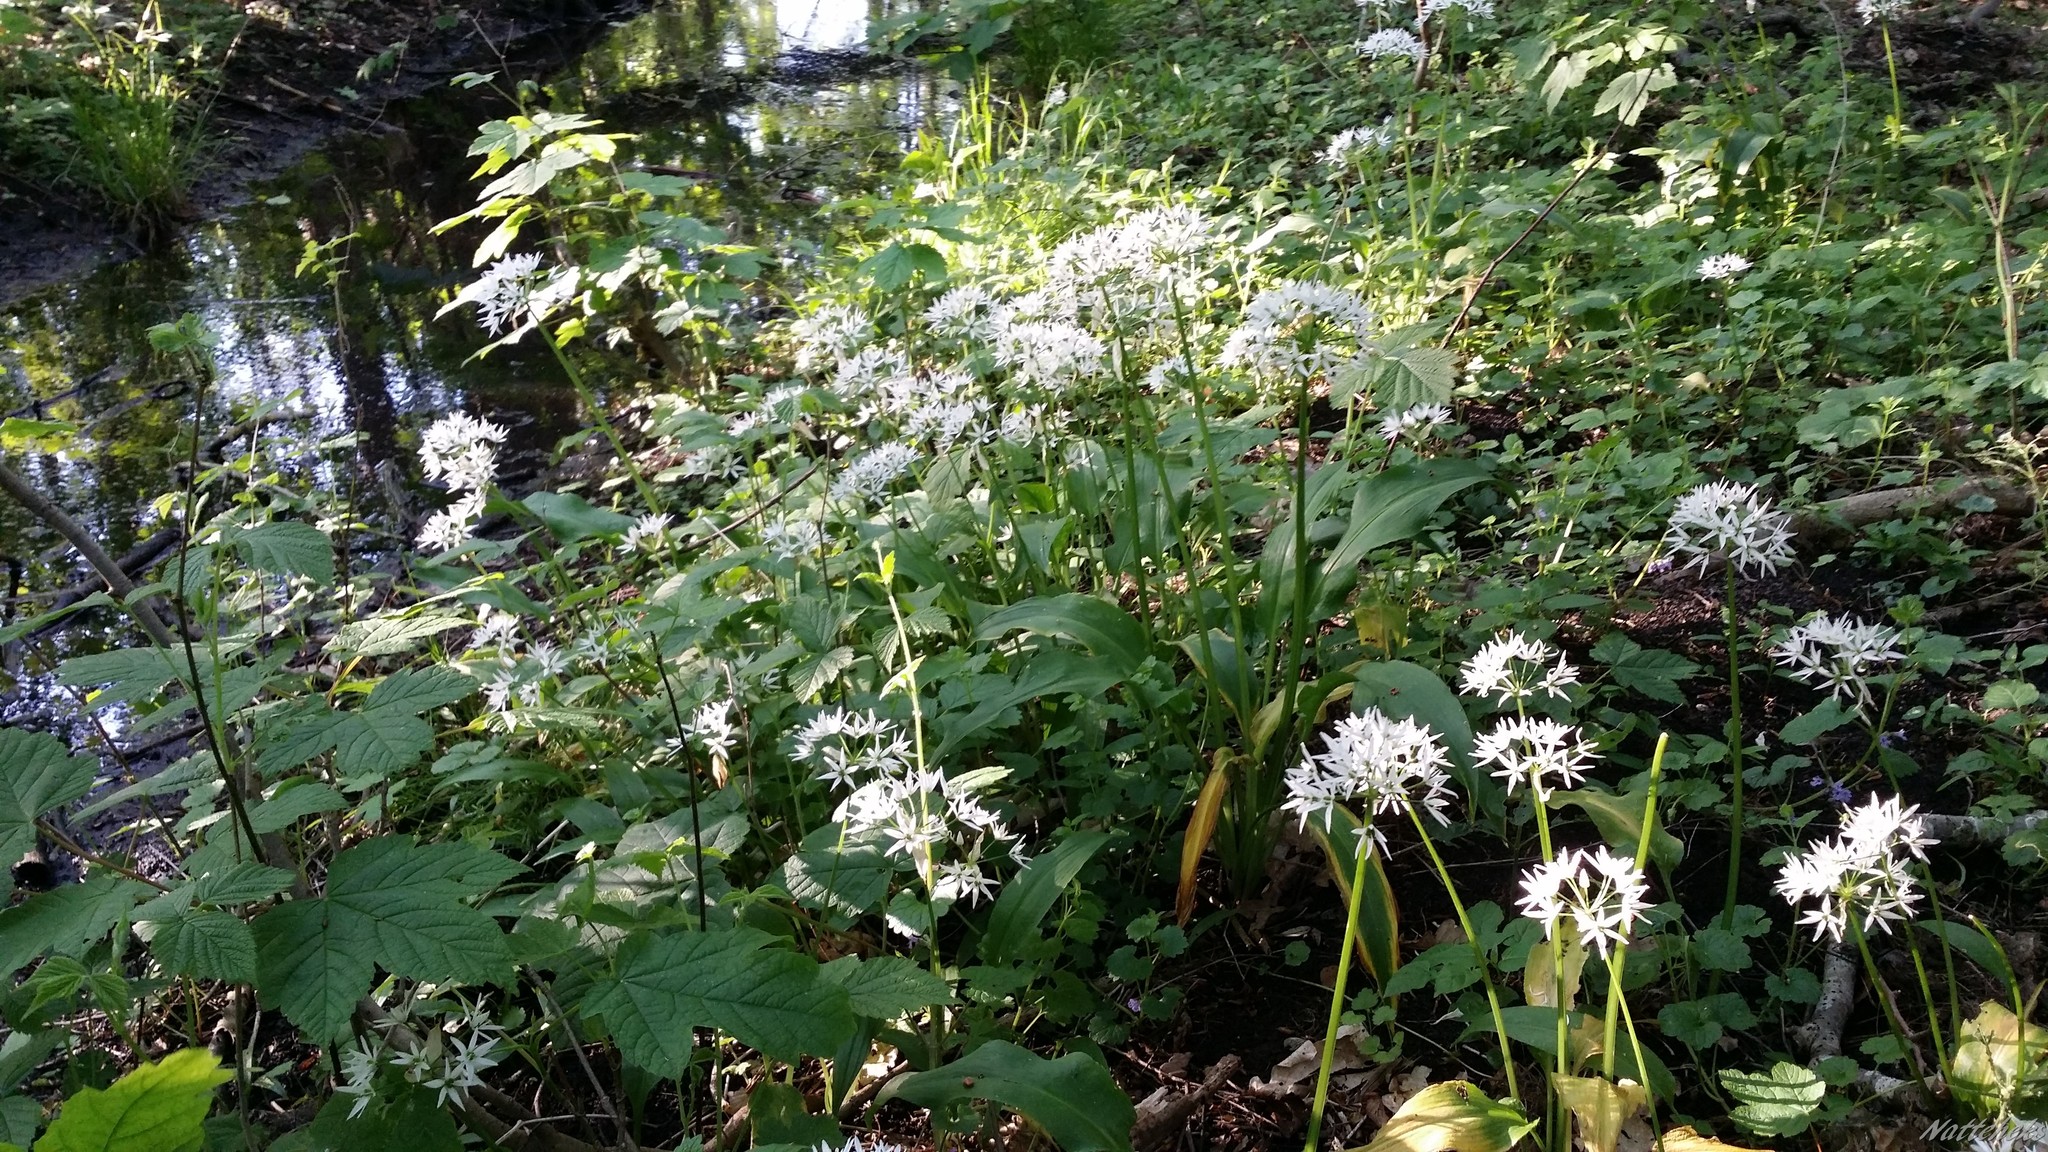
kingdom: Plantae
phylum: Tracheophyta
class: Liliopsida
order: Asparagales
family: Amaryllidaceae
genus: Allium
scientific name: Allium ursinum
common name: Ramsons
